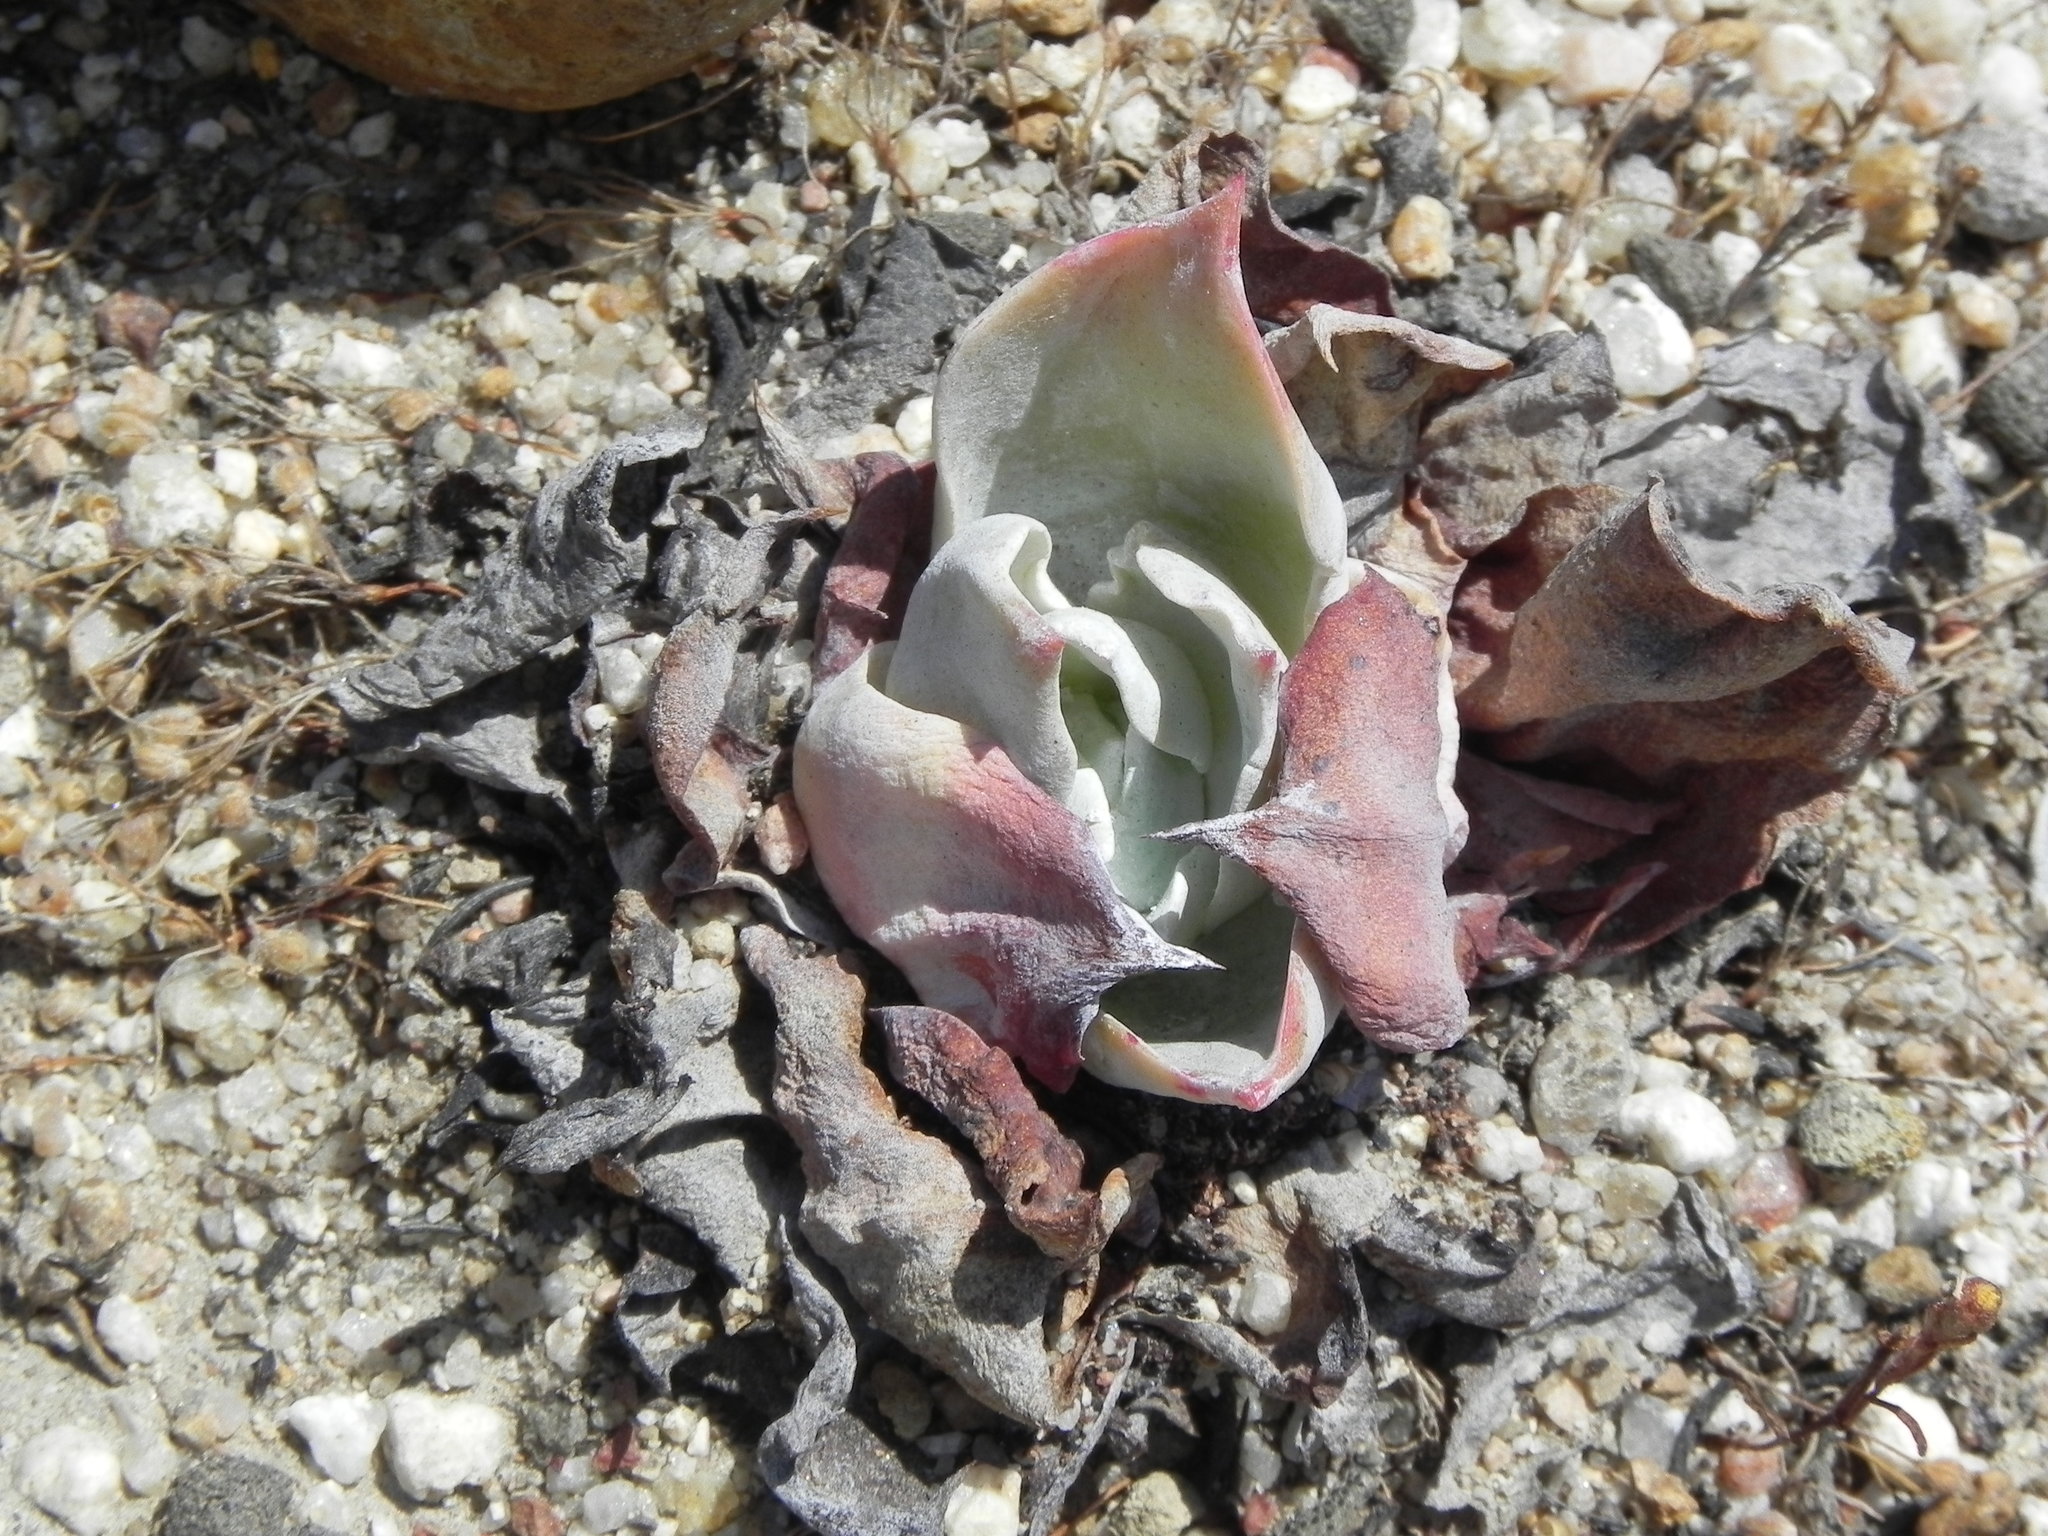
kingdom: Plantae
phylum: Tracheophyta
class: Magnoliopsida
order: Saxifragales
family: Crassulaceae
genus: Dudleya
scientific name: Dudleya pulverulenta
